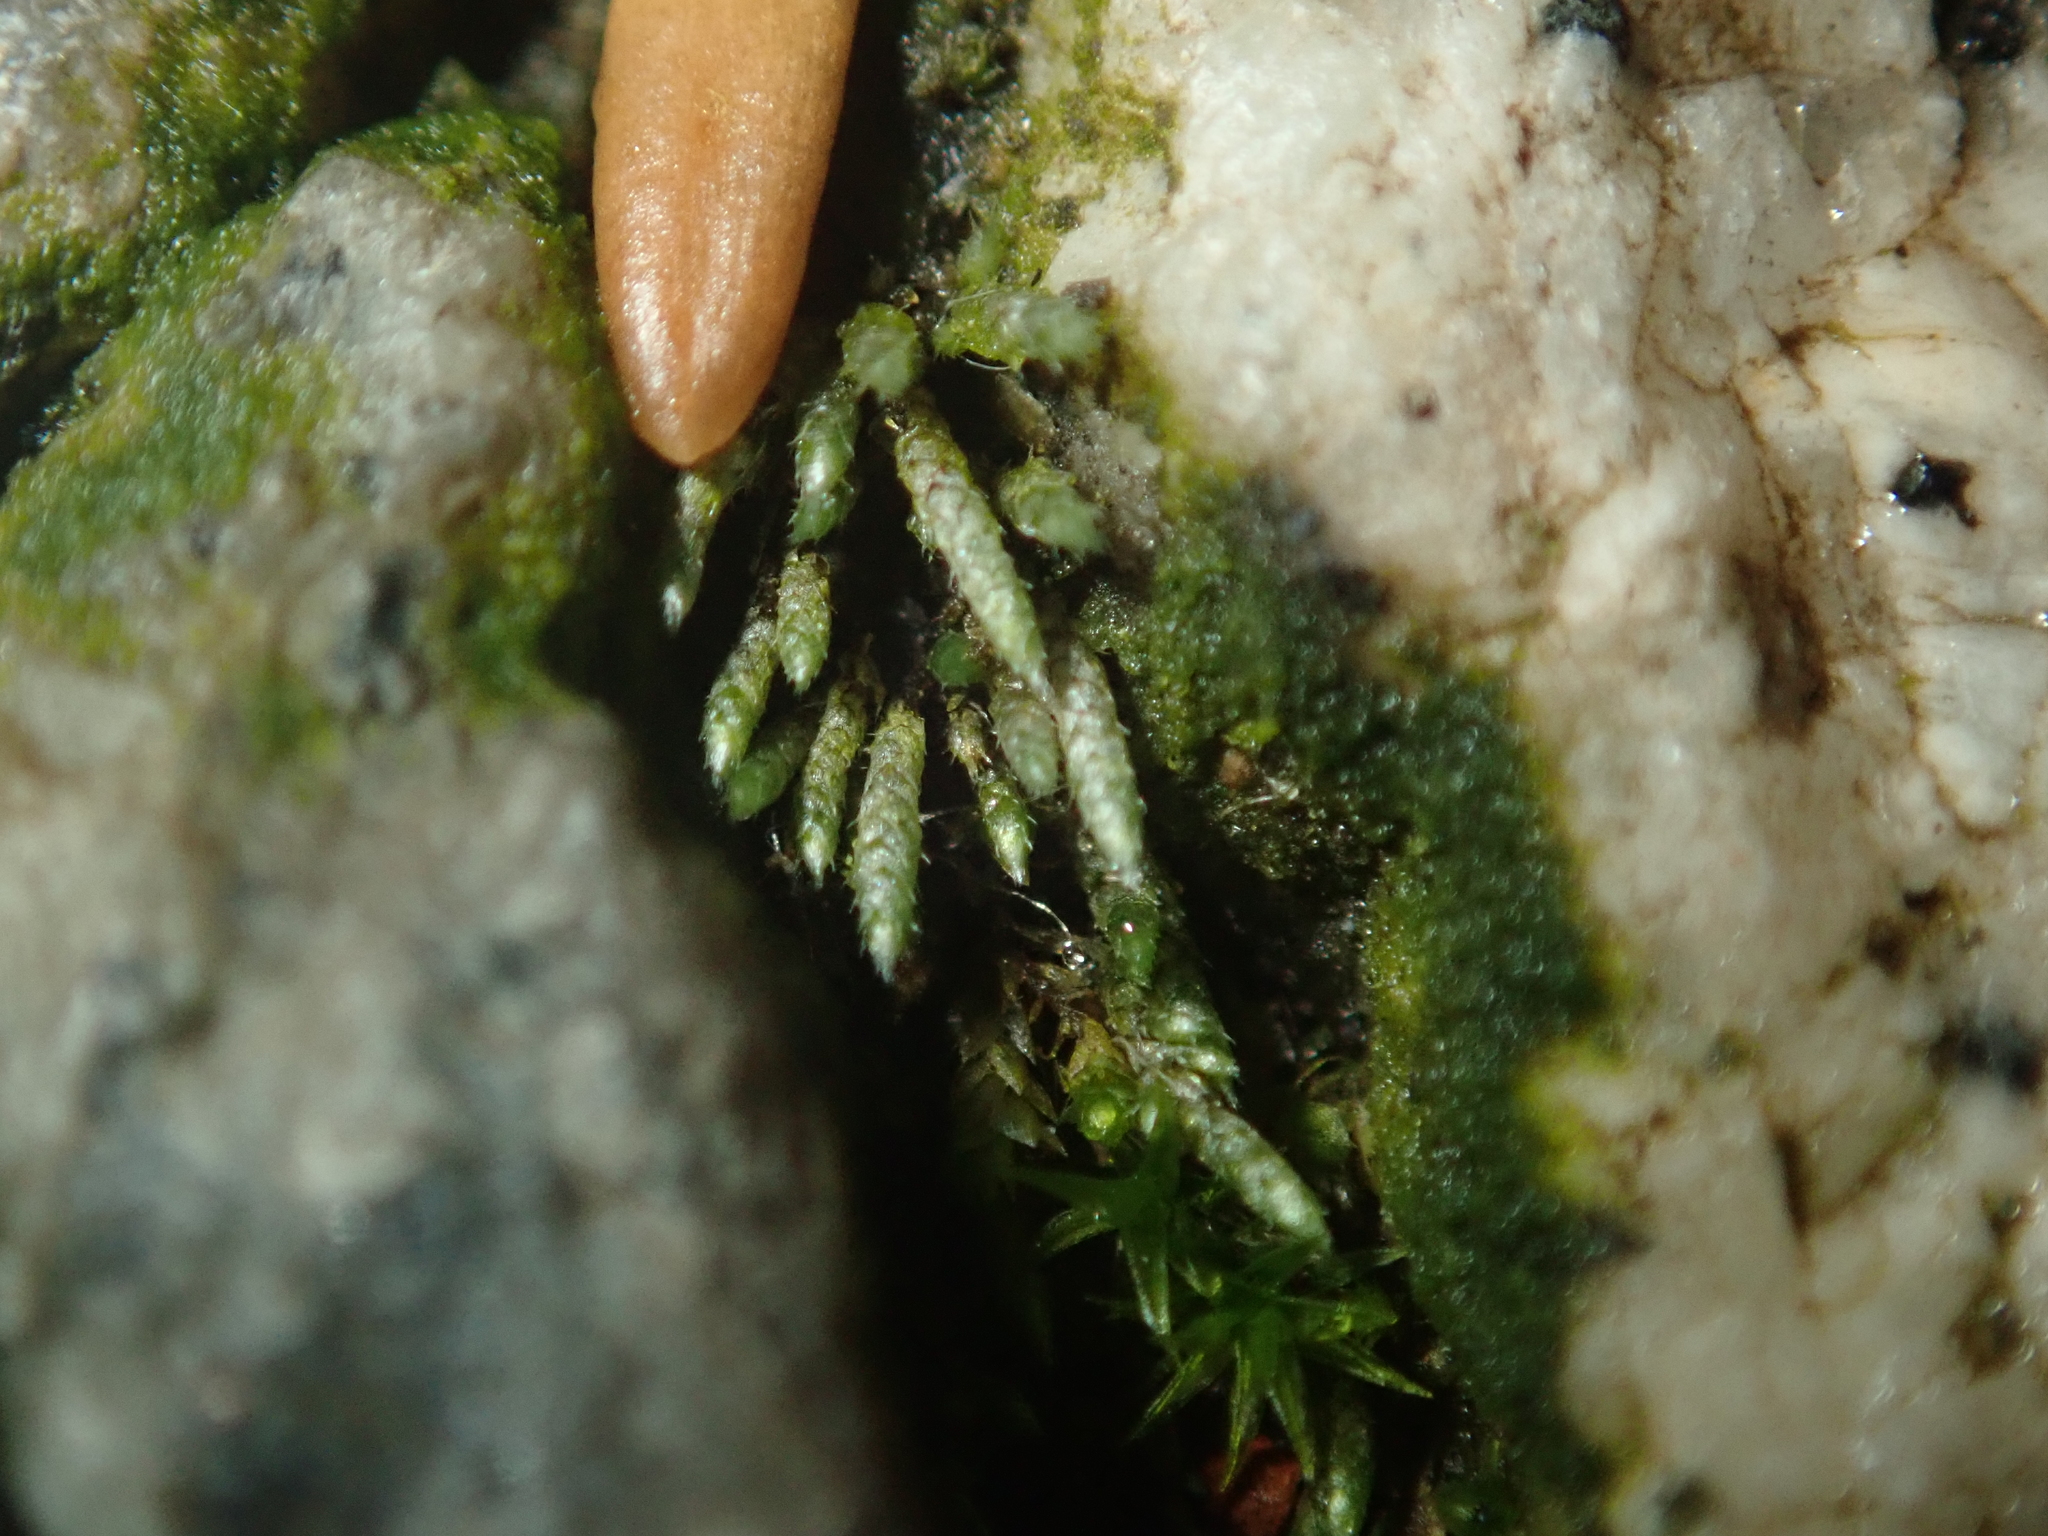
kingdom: Plantae
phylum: Bryophyta
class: Bryopsida
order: Bryales
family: Bryaceae
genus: Bryum
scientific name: Bryum argenteum
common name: Silver-moss
